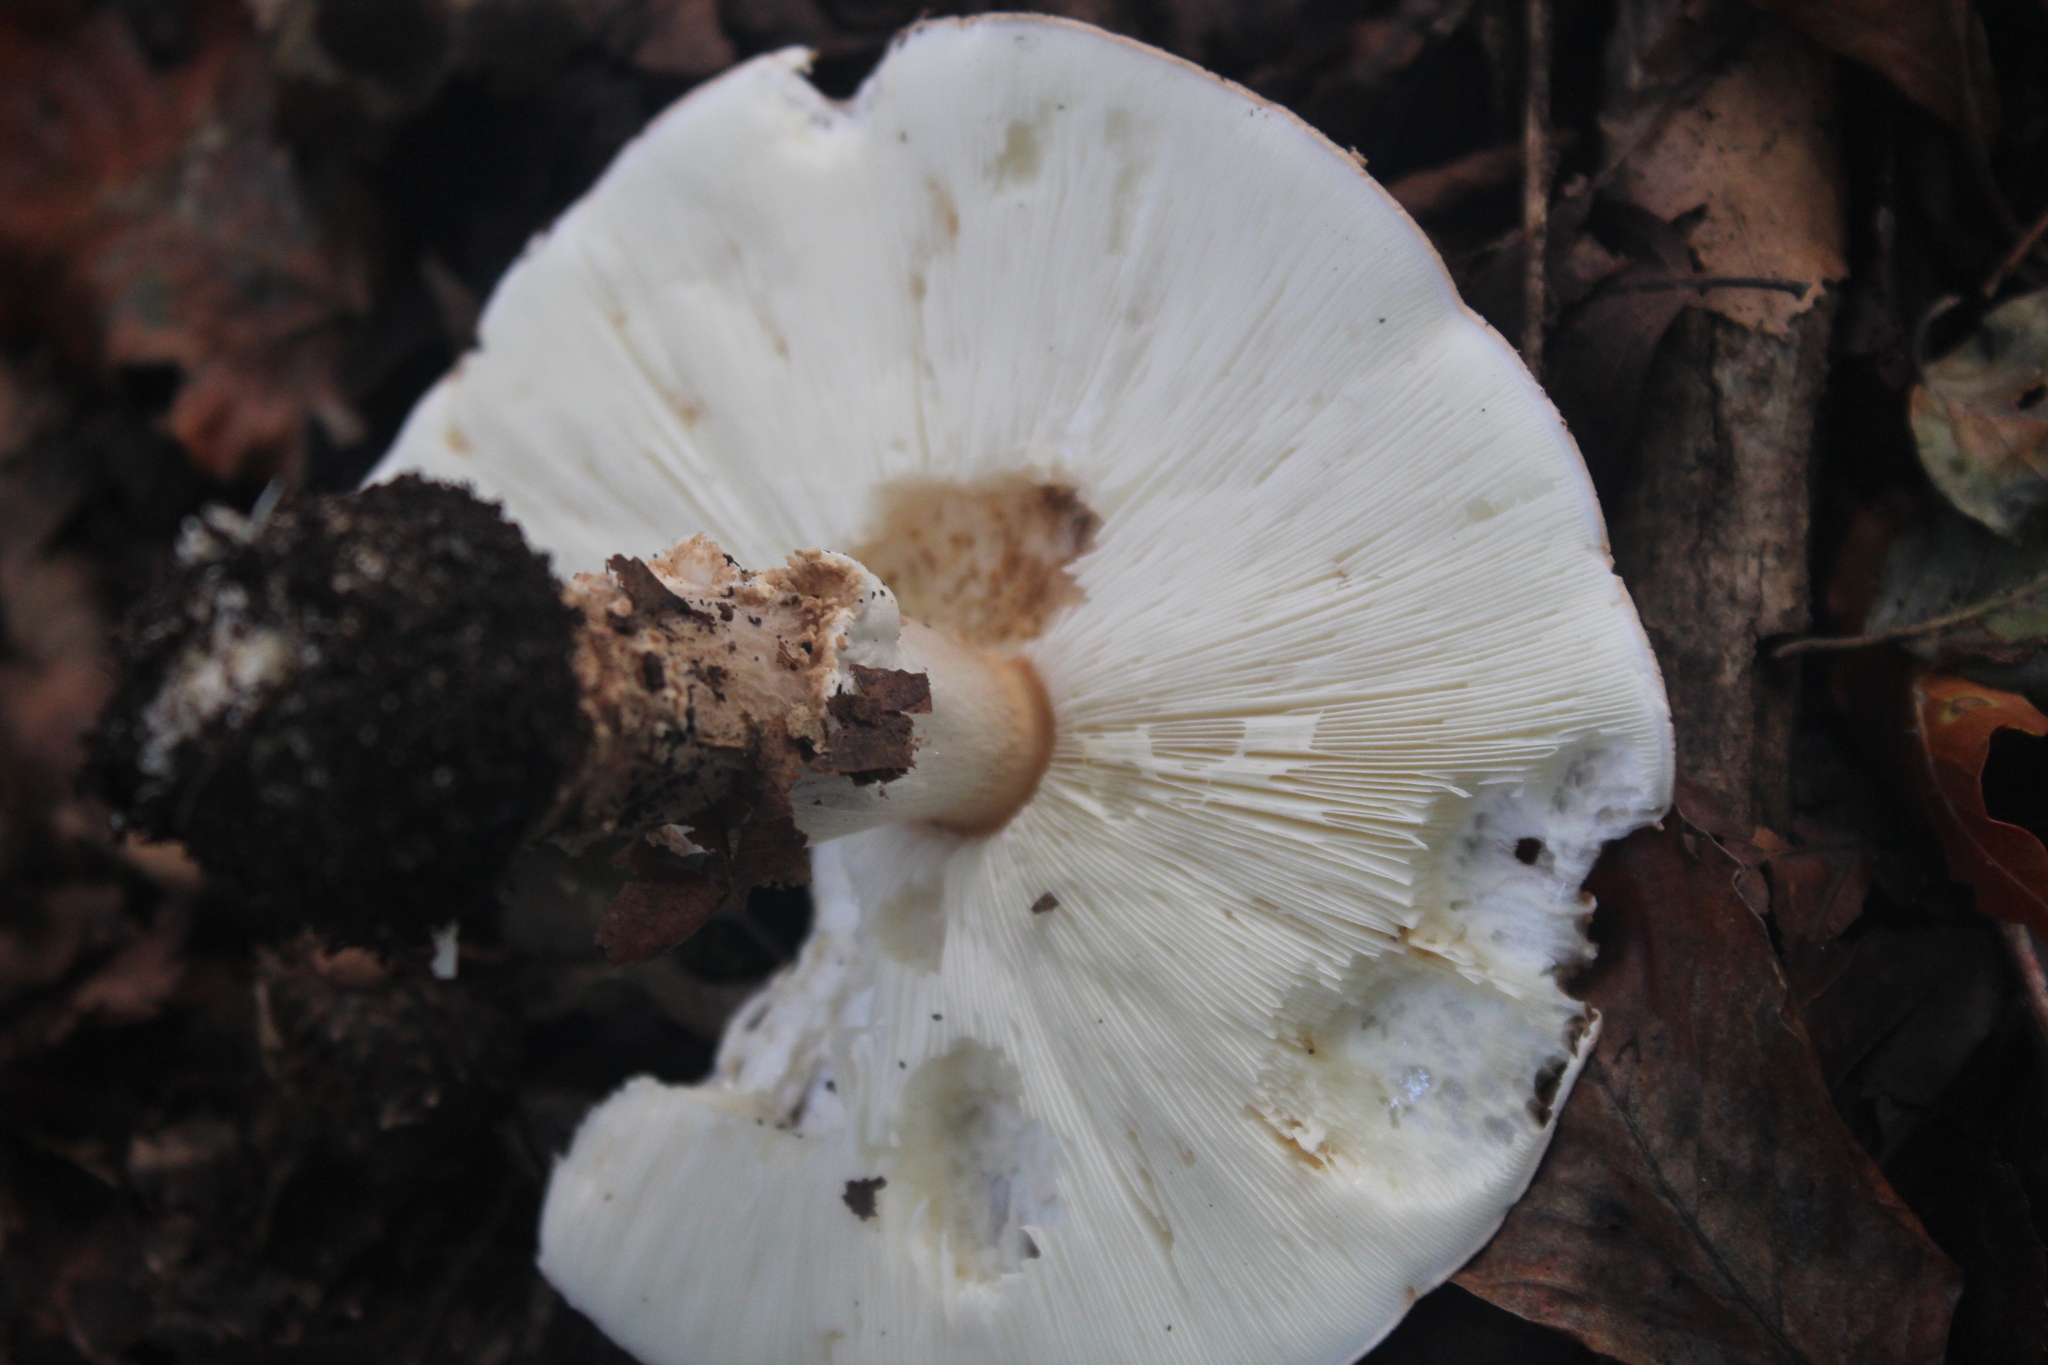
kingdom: Fungi
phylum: Basidiomycota
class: Agaricomycetes
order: Agaricales
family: Amanitaceae
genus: Amanita
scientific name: Amanita rubescens
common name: Blusher
